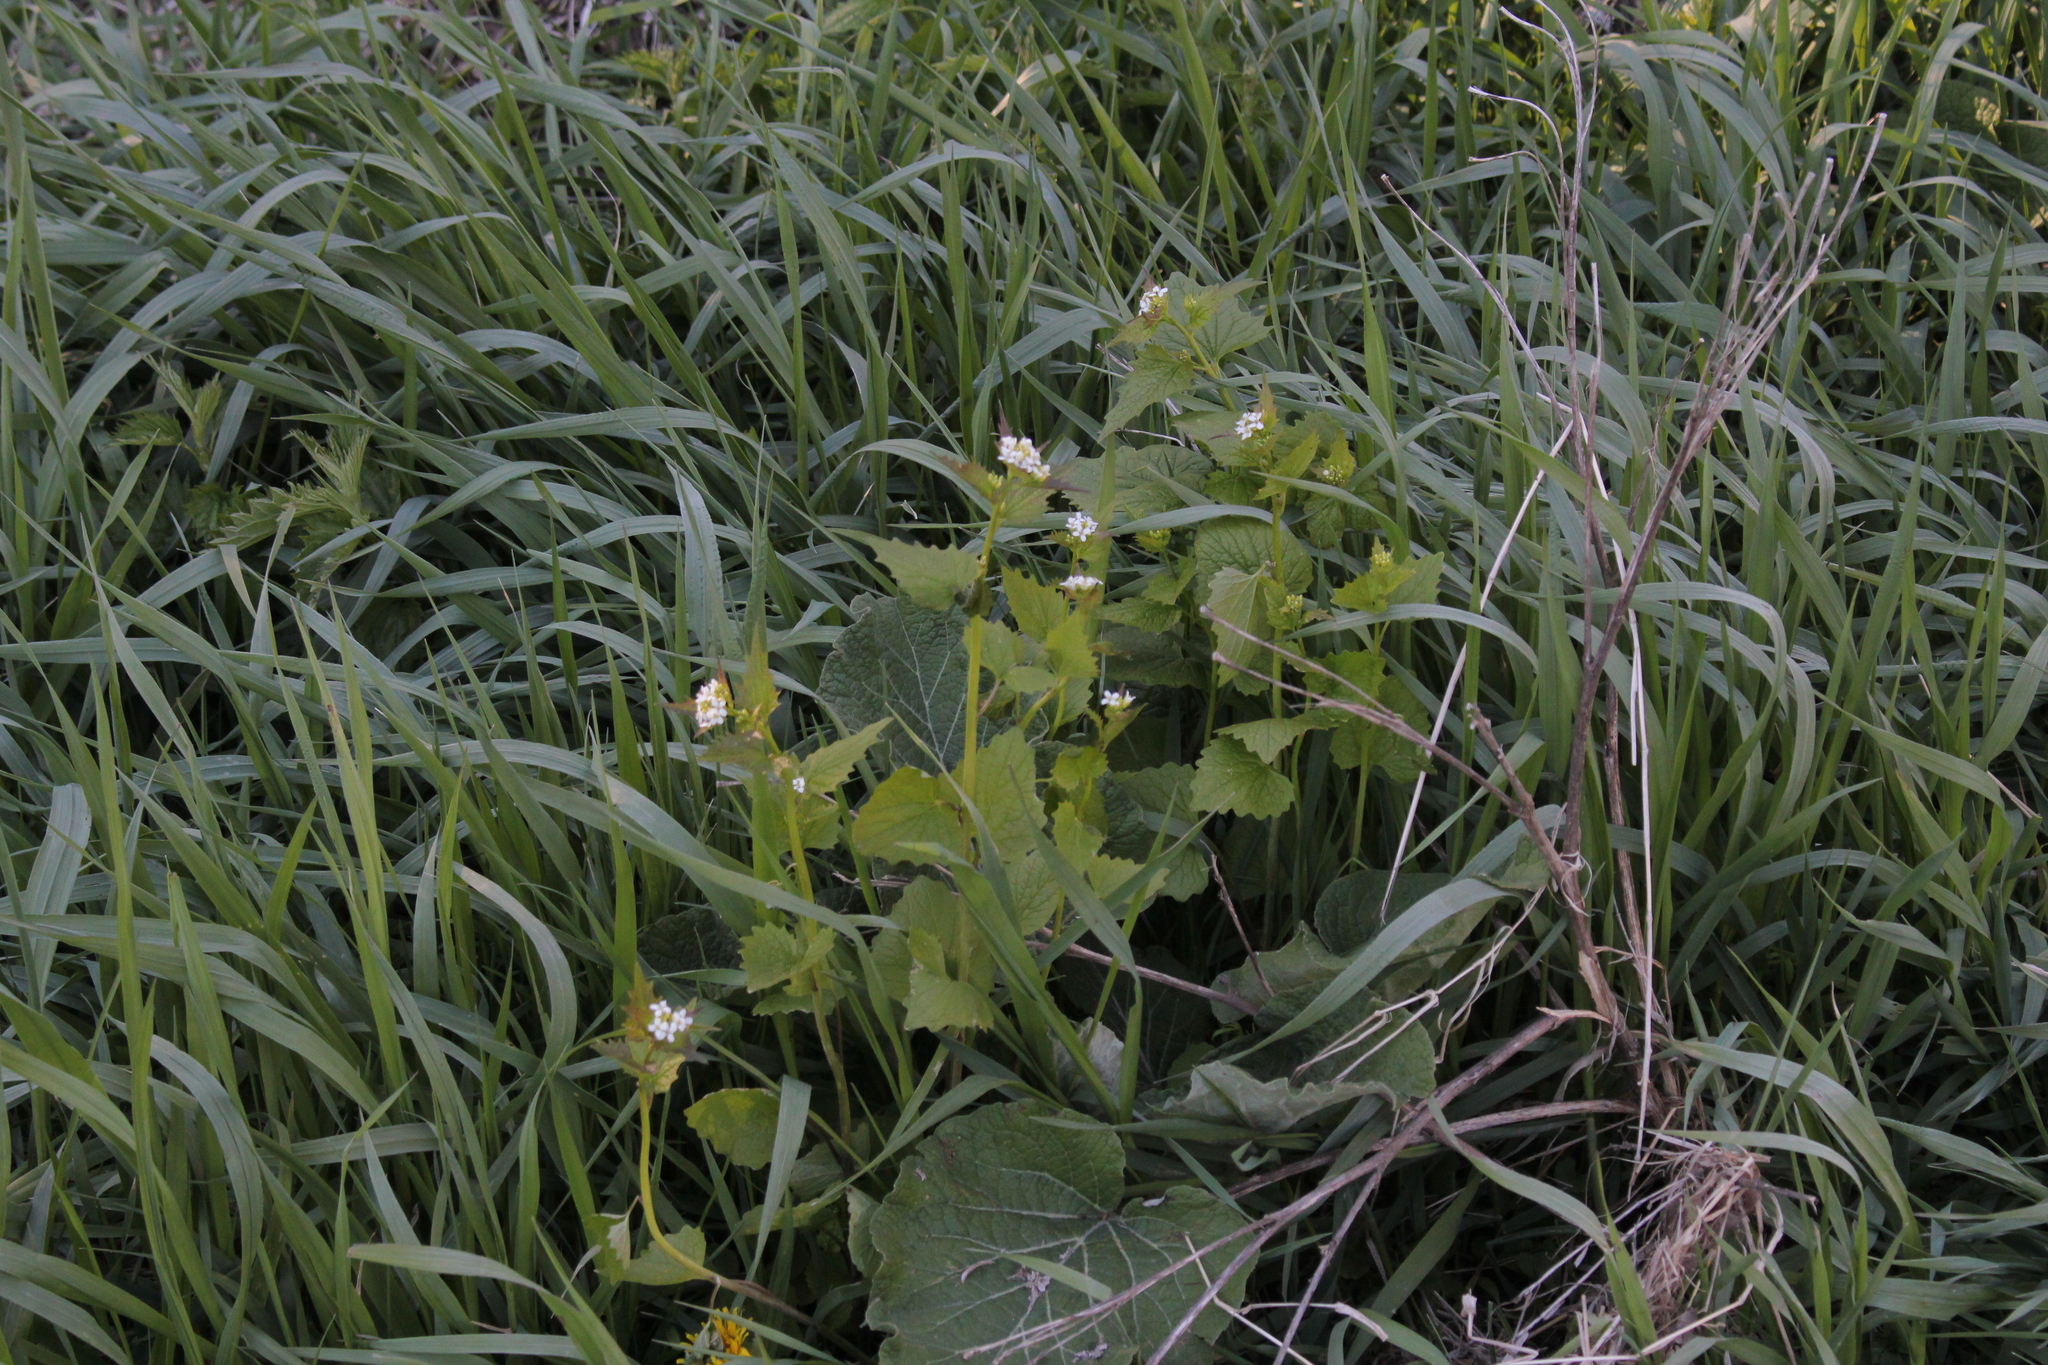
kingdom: Plantae
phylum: Tracheophyta
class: Magnoliopsida
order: Brassicales
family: Brassicaceae
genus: Alliaria
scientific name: Alliaria petiolata
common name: Garlic mustard
